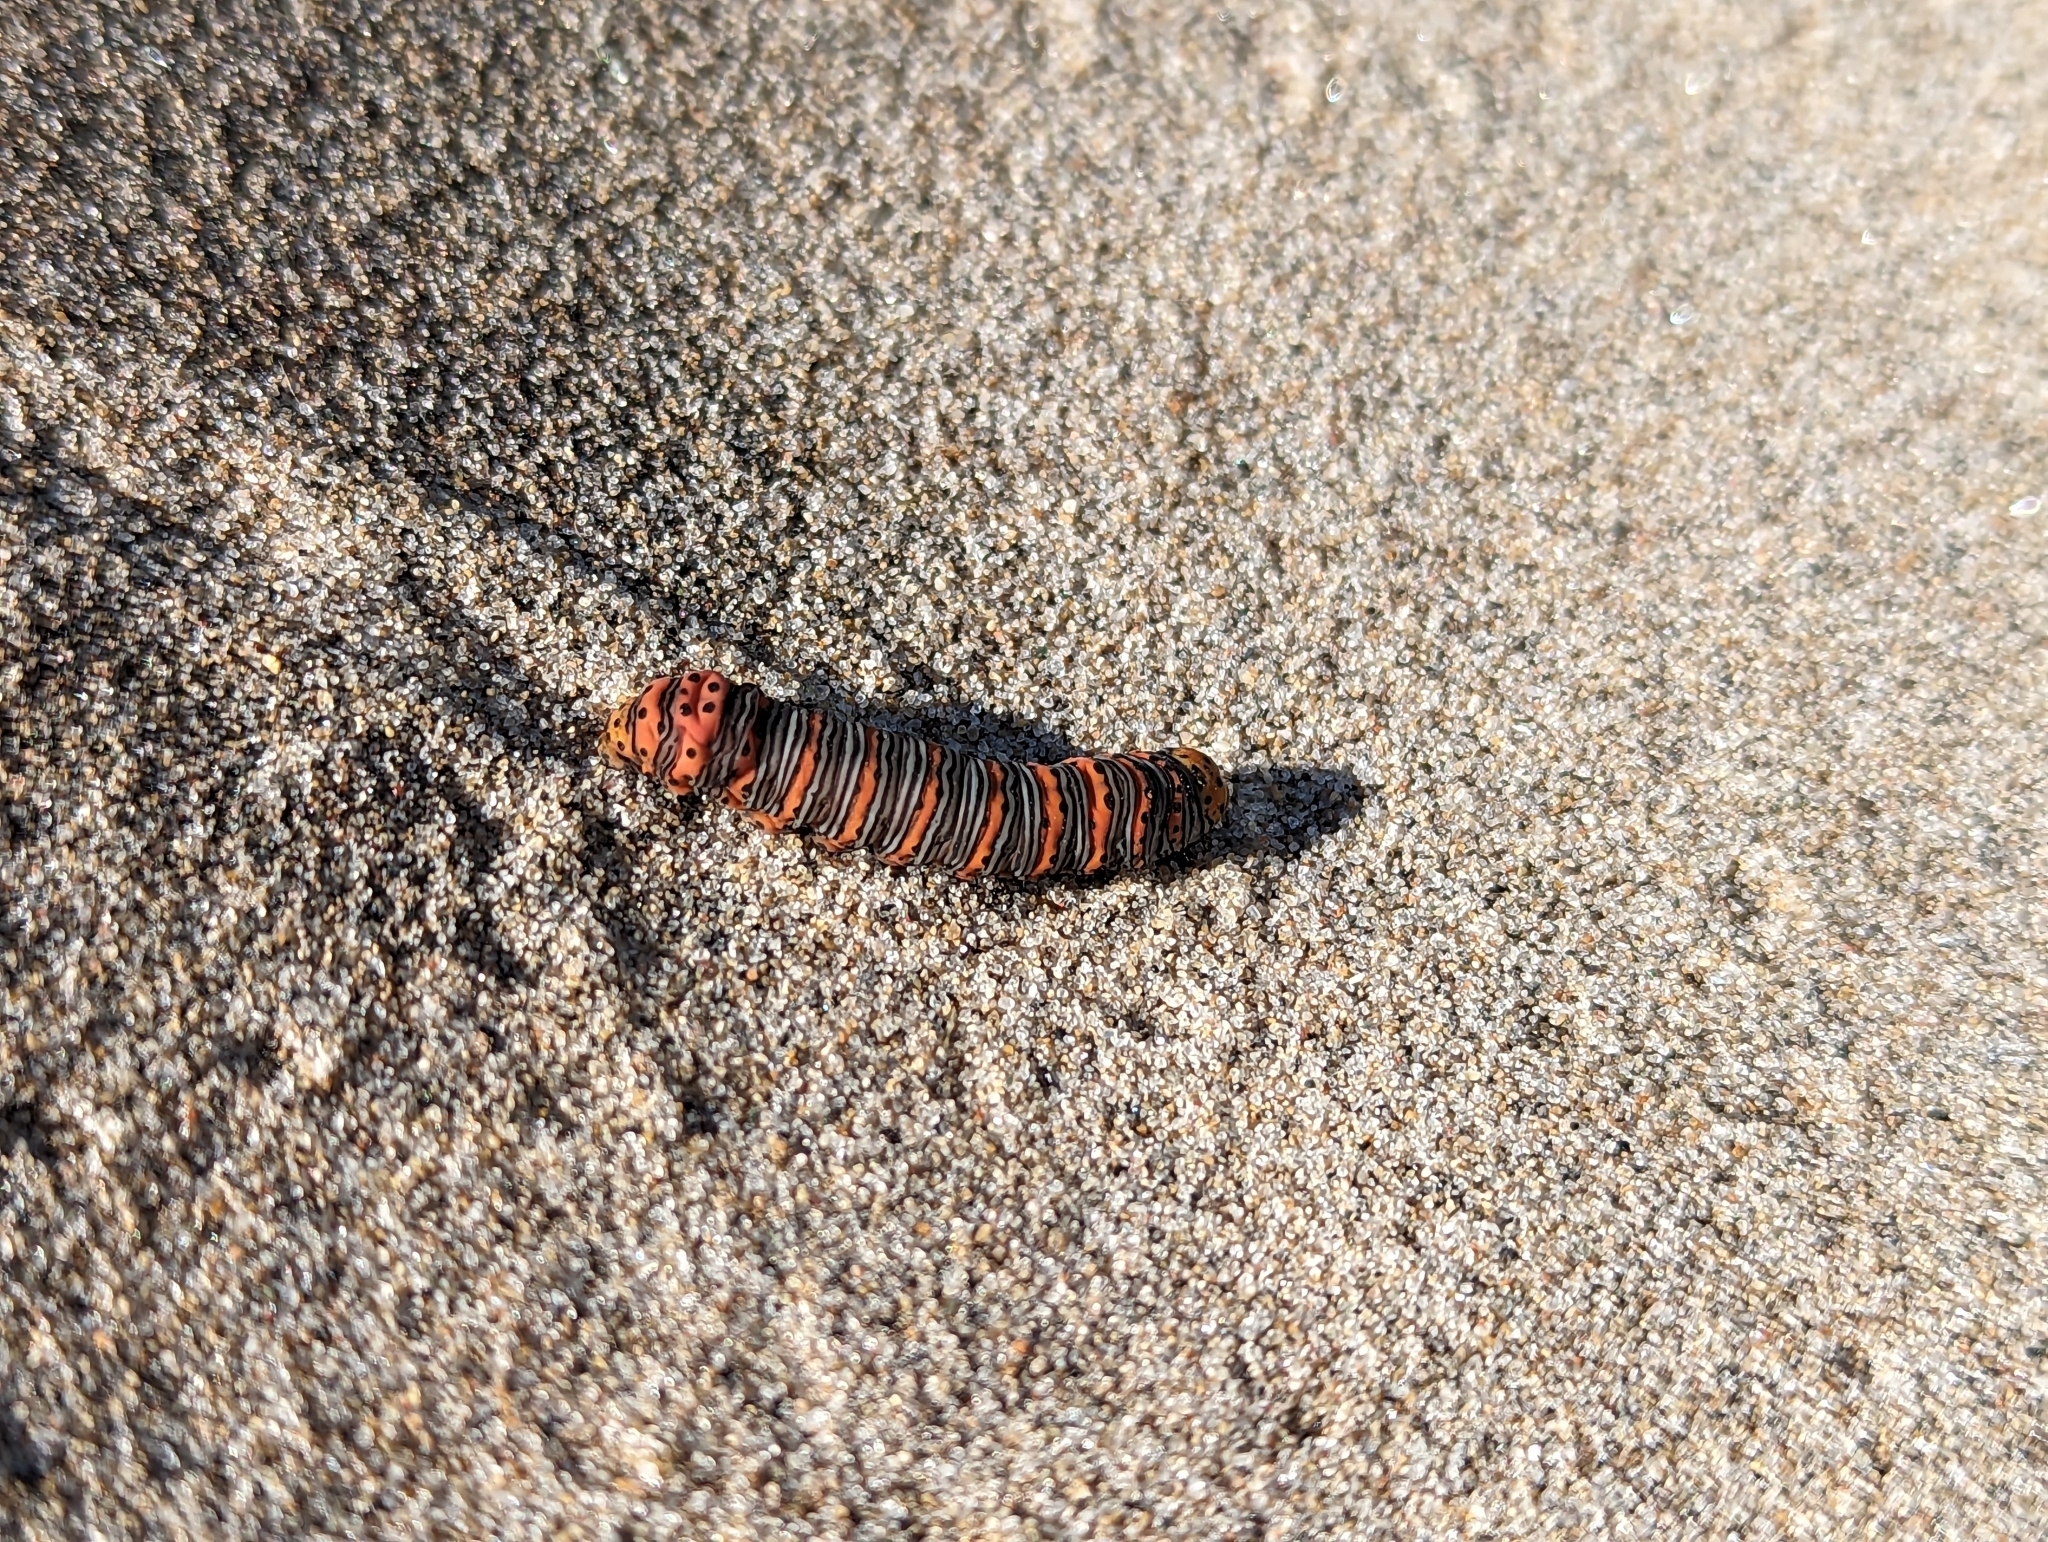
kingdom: Animalia
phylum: Arthropoda
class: Insecta
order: Lepidoptera
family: Noctuidae
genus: Eudryas
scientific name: Eudryas grata
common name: Beautiful wood-nymph
